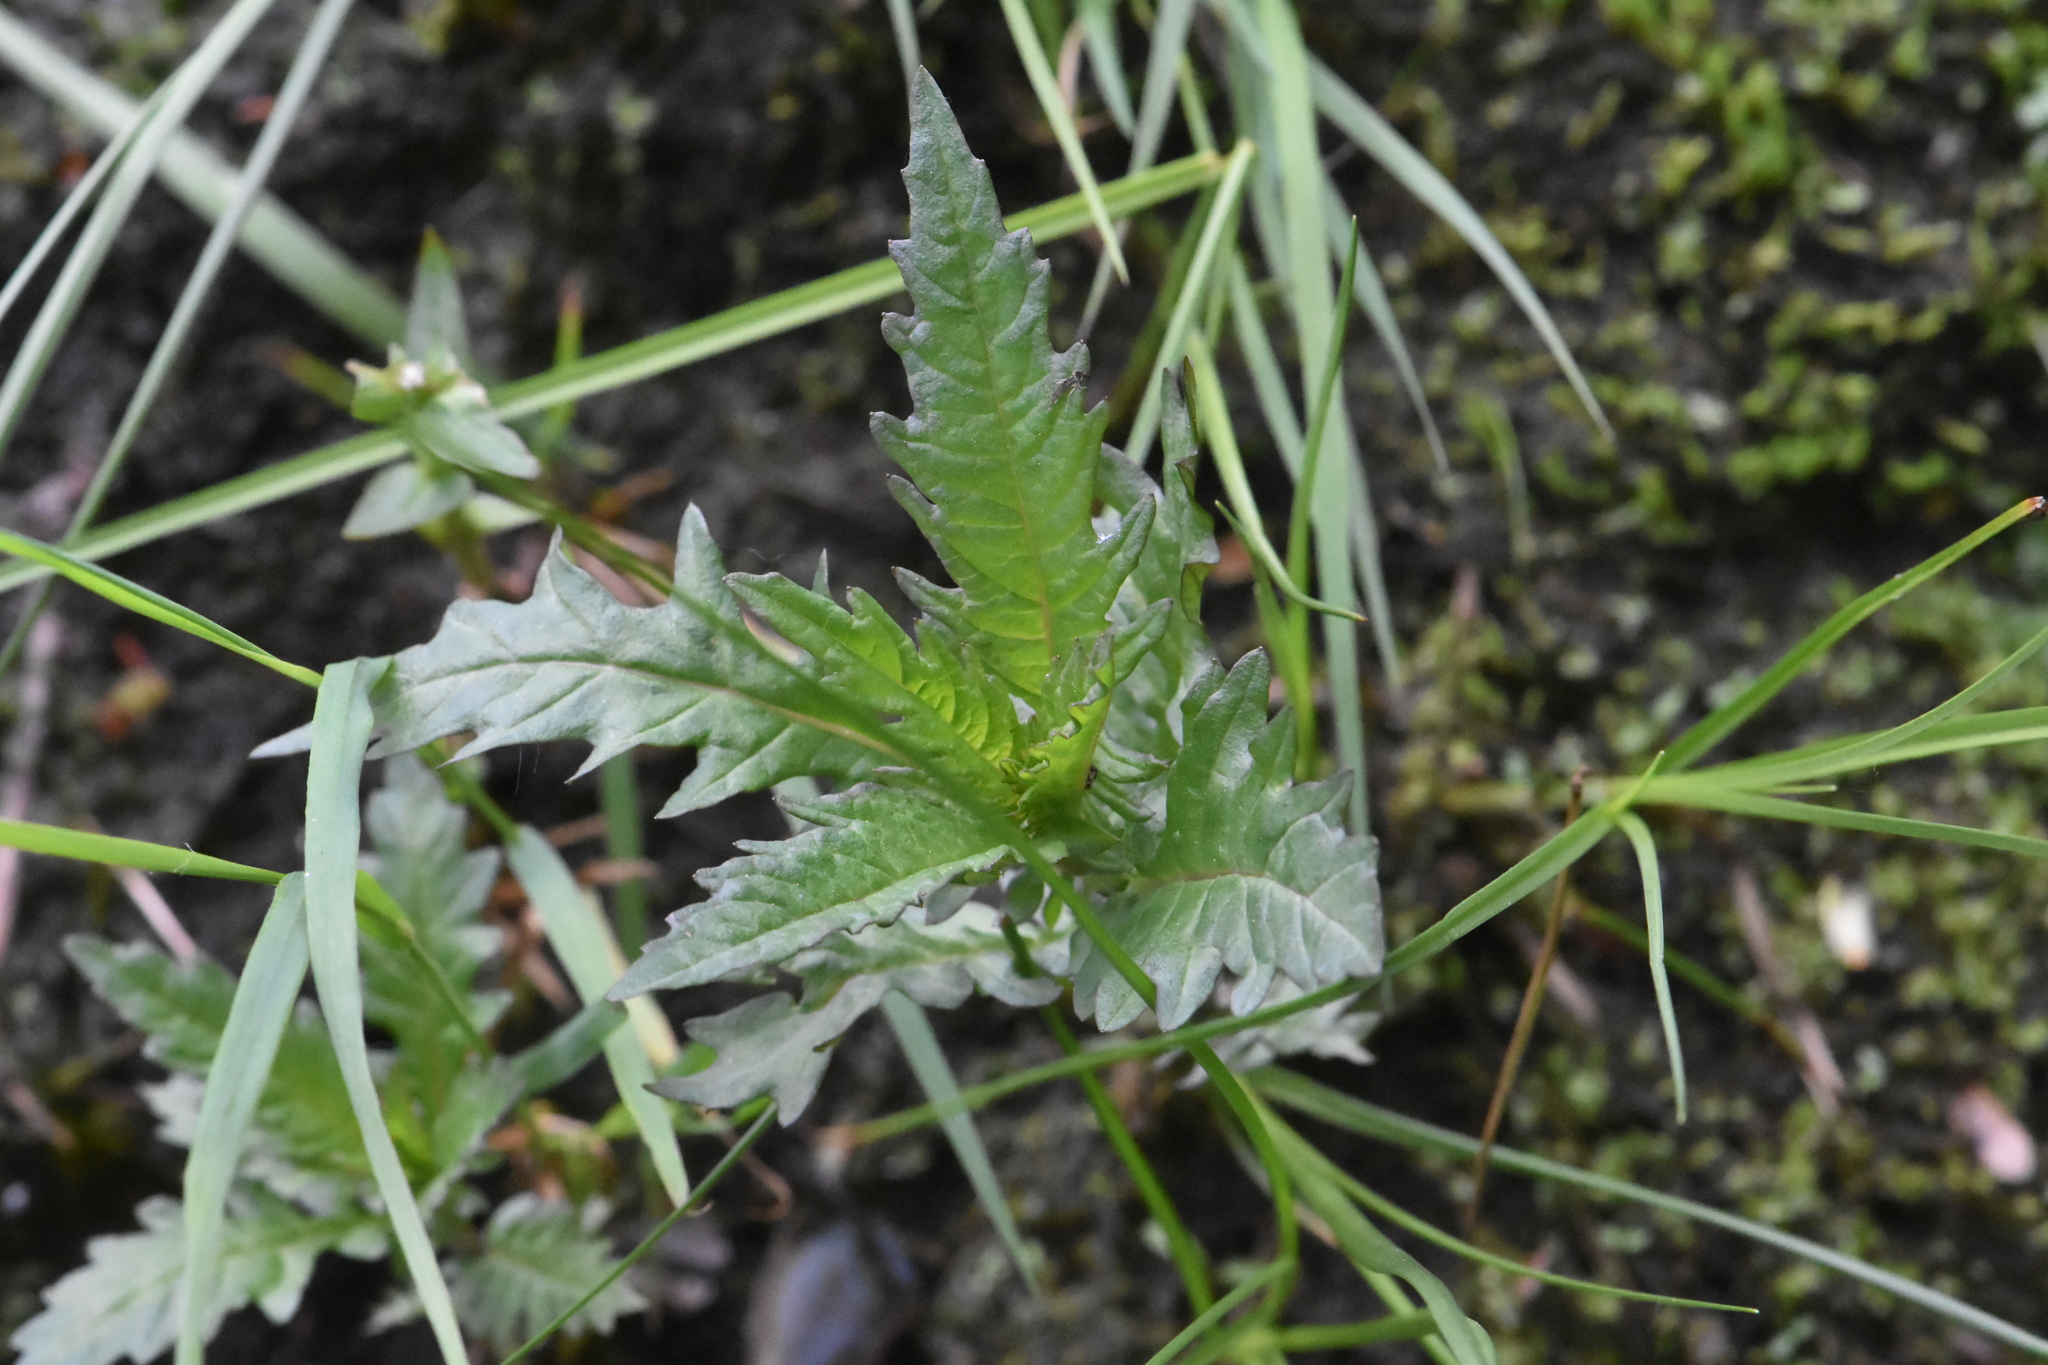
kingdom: Plantae
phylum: Tracheophyta
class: Magnoliopsida
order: Lamiales
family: Lamiaceae
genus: Lycopus
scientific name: Lycopus europaeus
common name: European bugleweed
